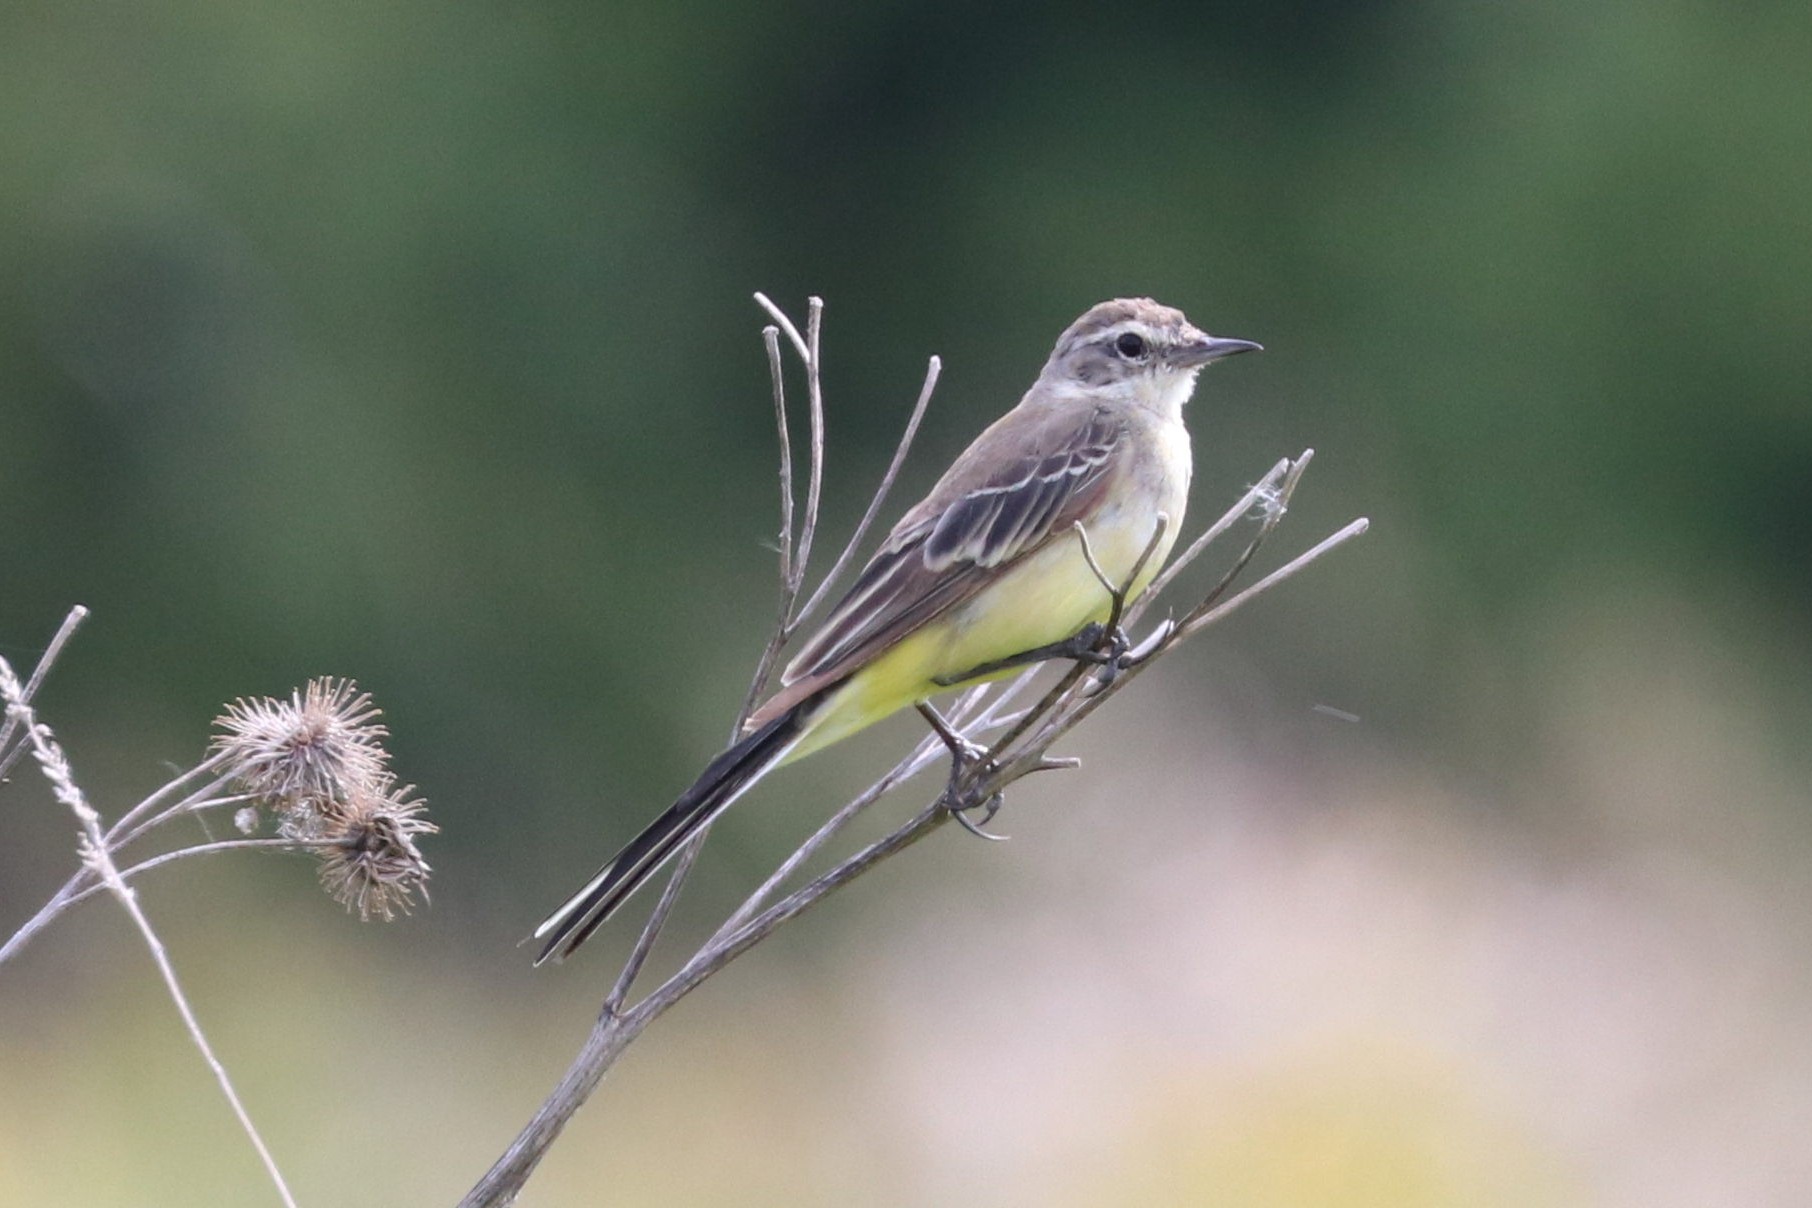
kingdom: Animalia
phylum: Chordata
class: Aves
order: Passeriformes
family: Motacillidae
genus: Motacilla
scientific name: Motacilla flava
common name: Western yellow wagtail
